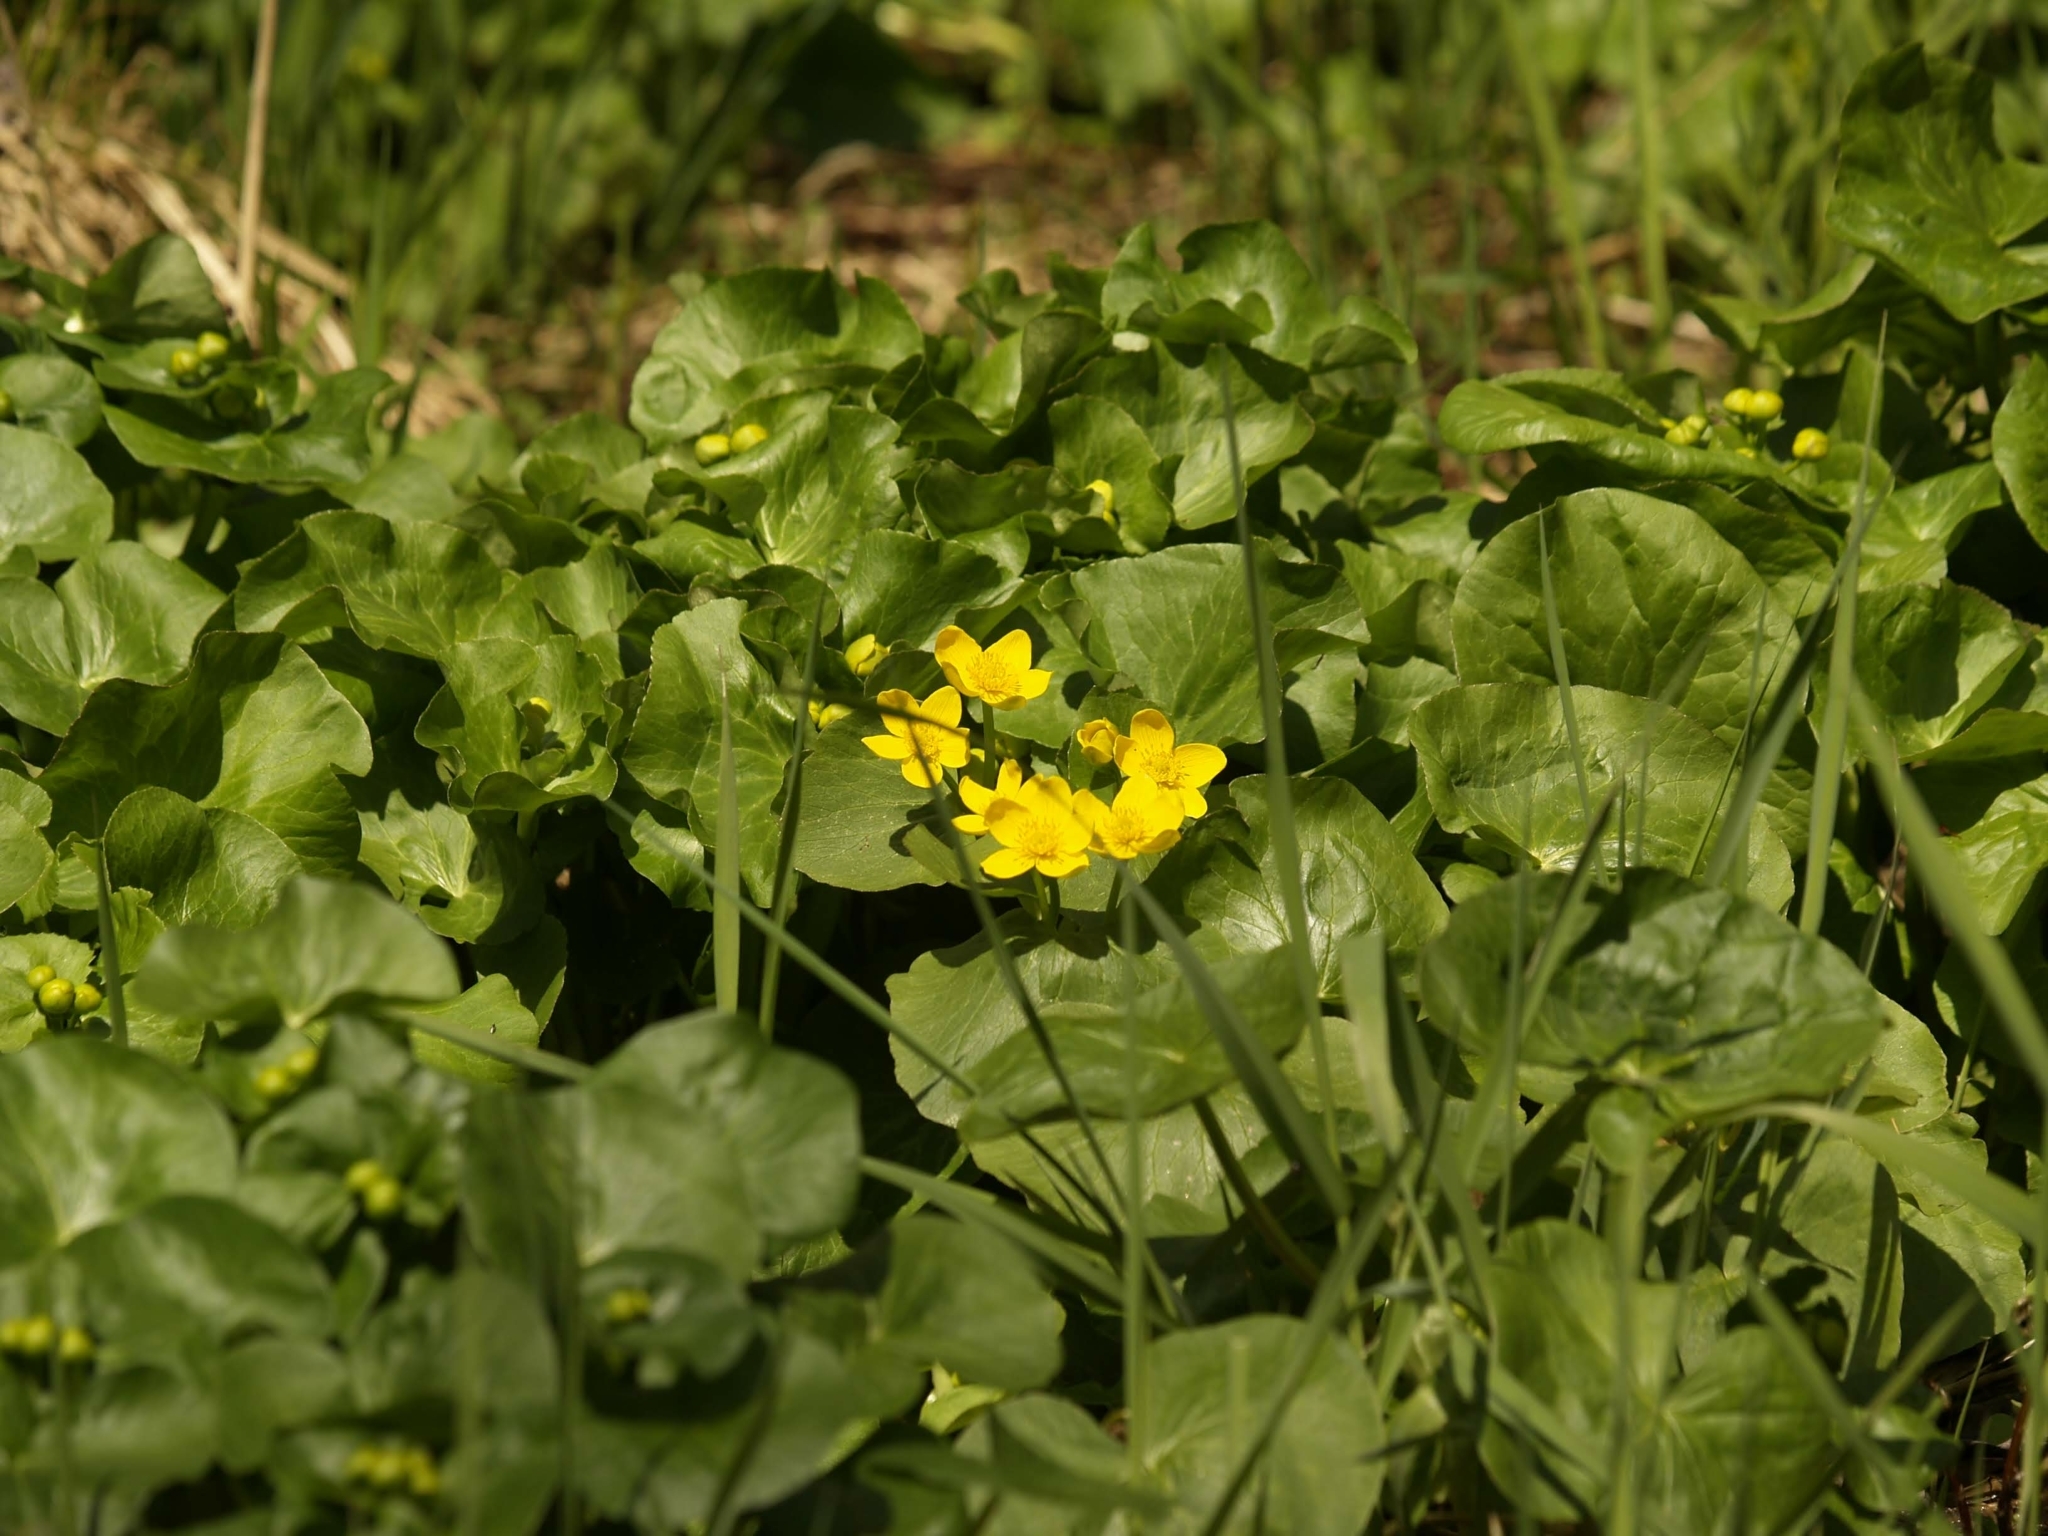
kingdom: Plantae
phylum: Tracheophyta
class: Magnoliopsida
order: Ranunculales
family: Ranunculaceae
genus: Caltha
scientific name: Caltha palustris
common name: Marsh marigold
